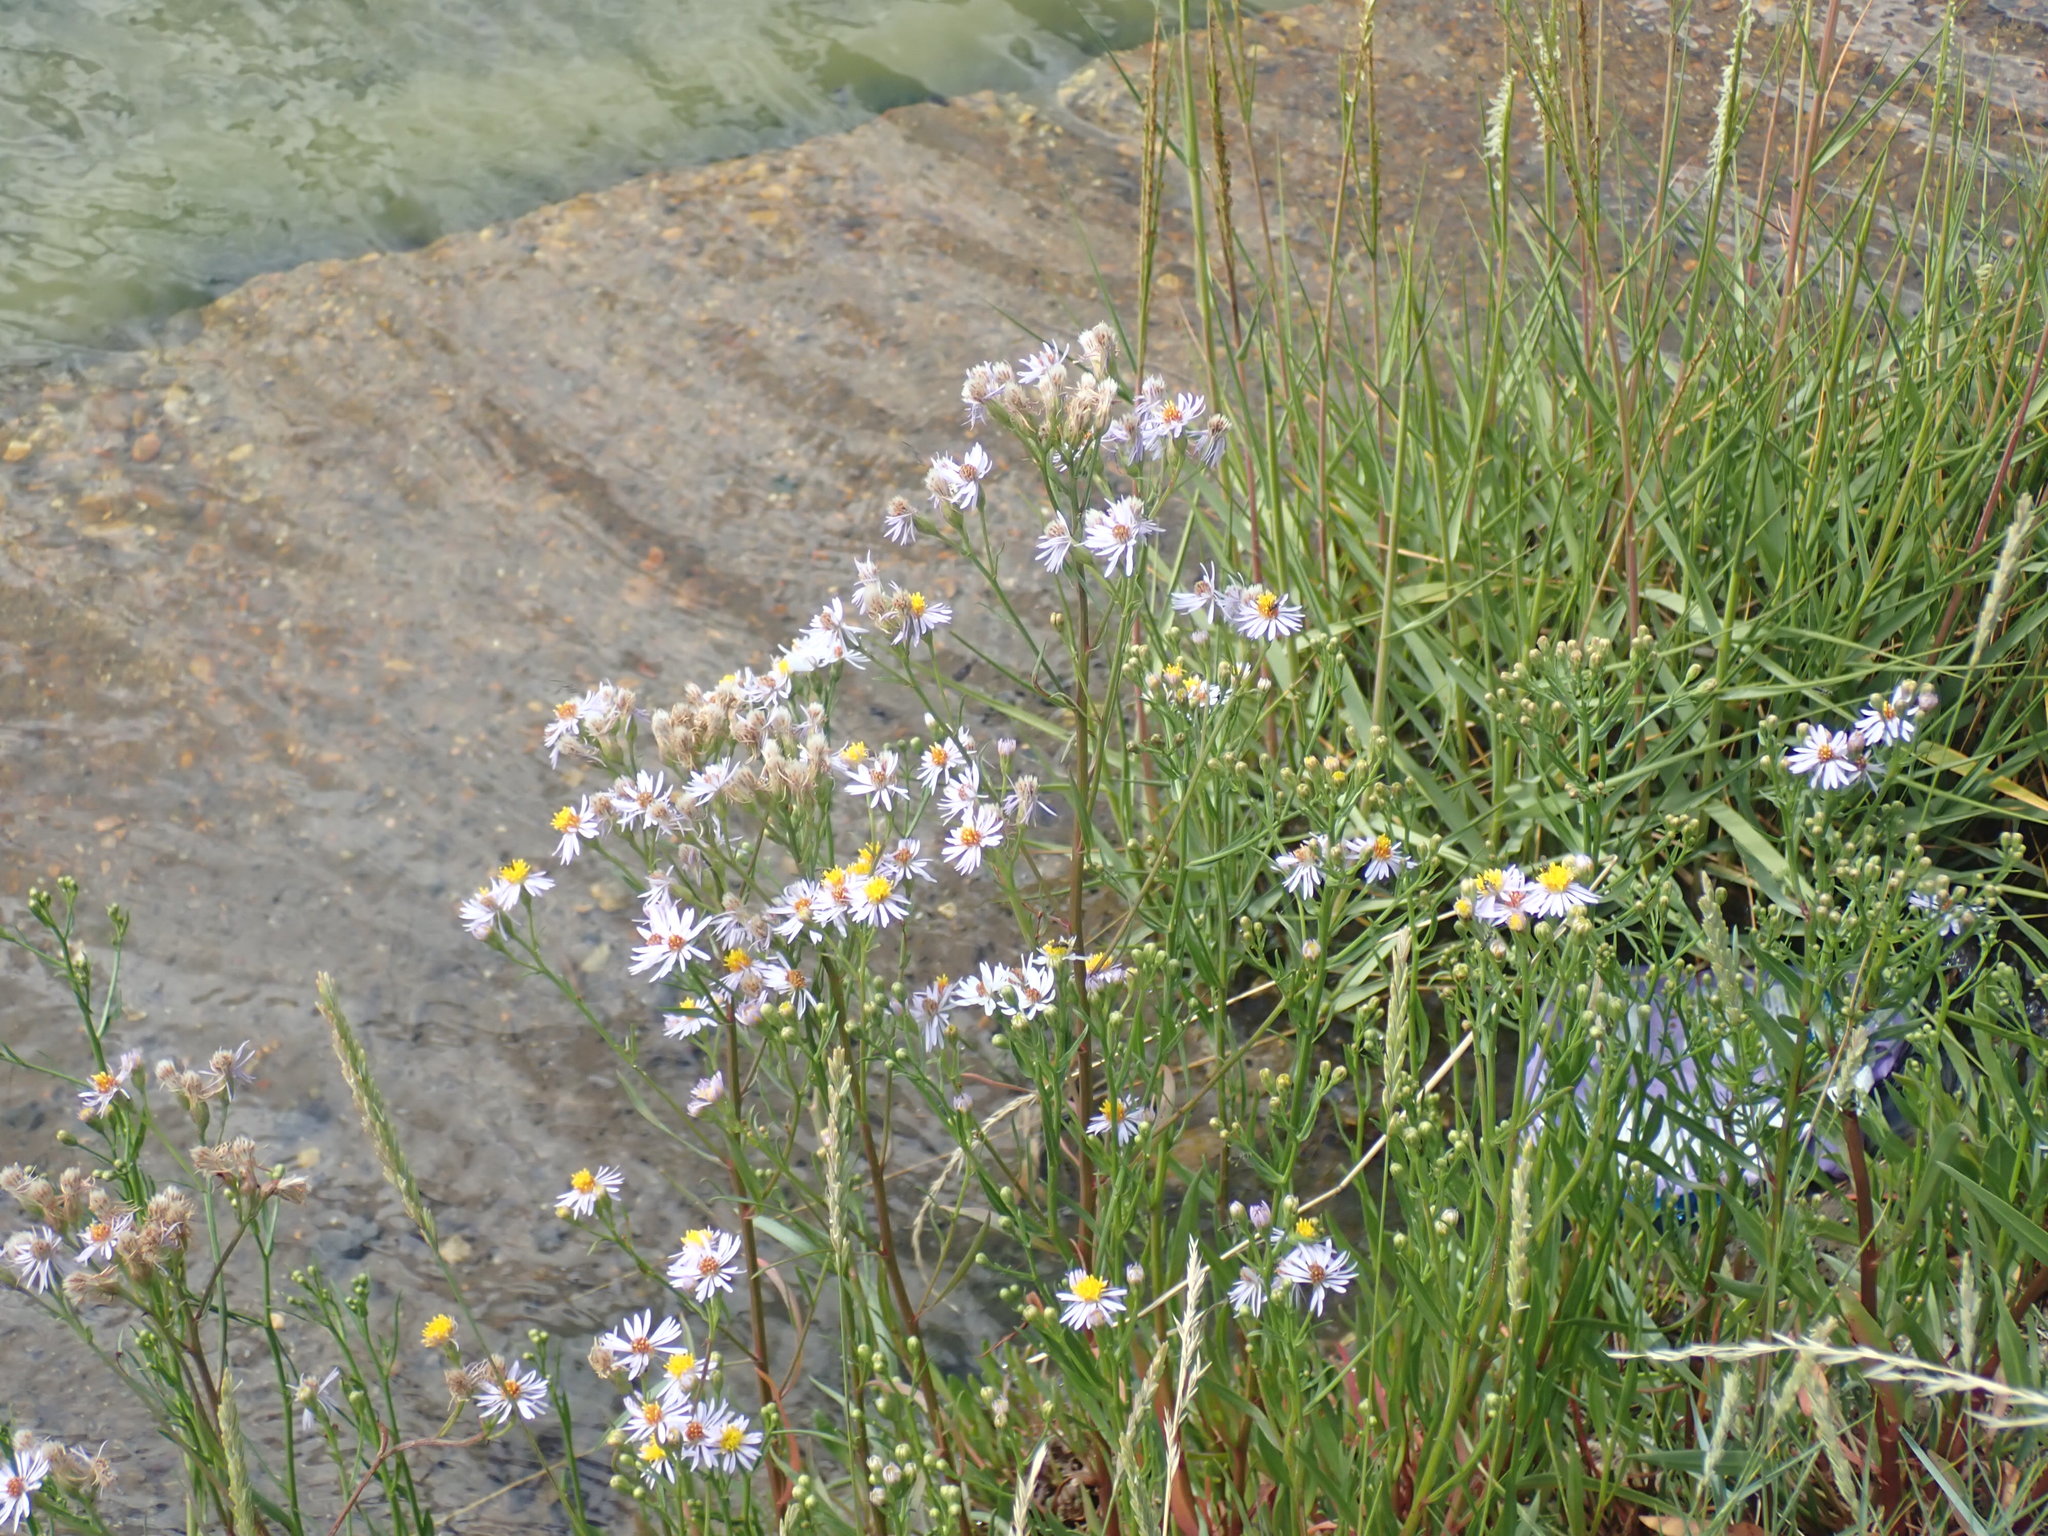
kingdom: Plantae
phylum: Tracheophyta
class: Magnoliopsida
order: Asterales
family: Asteraceae
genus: Tripolium
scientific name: Tripolium pannonicum
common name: Sea aster
